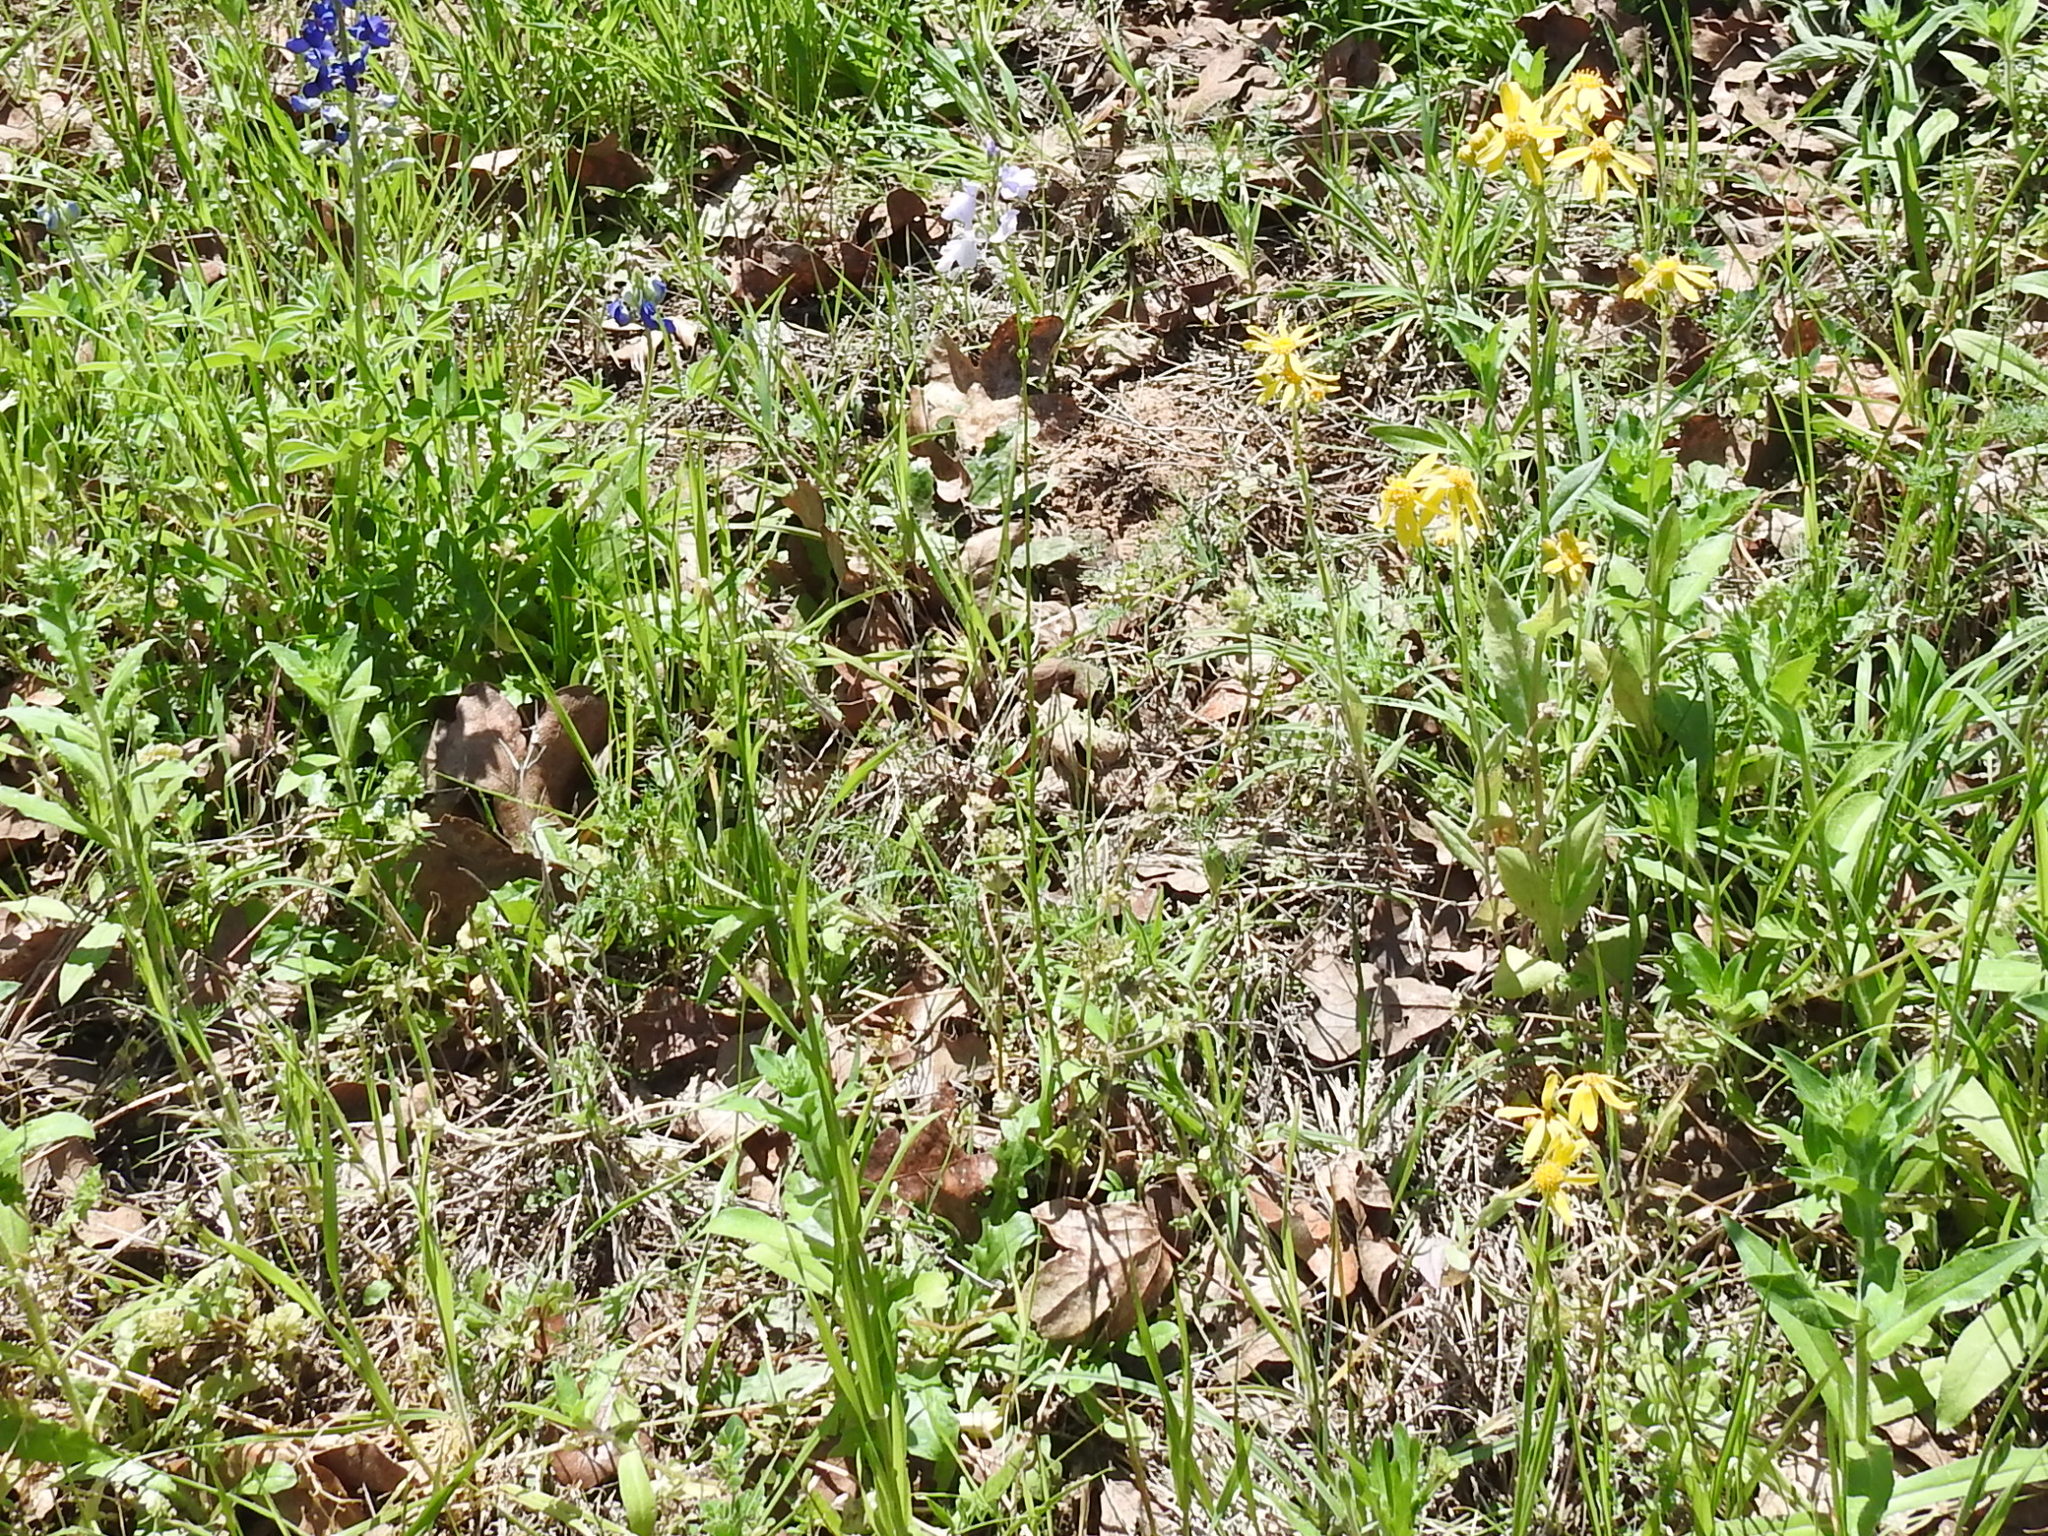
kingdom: Plantae
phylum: Tracheophyta
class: Magnoliopsida
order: Lamiales
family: Plantaginaceae
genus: Nuttallanthus
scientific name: Nuttallanthus texanus
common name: Texas toadflax
